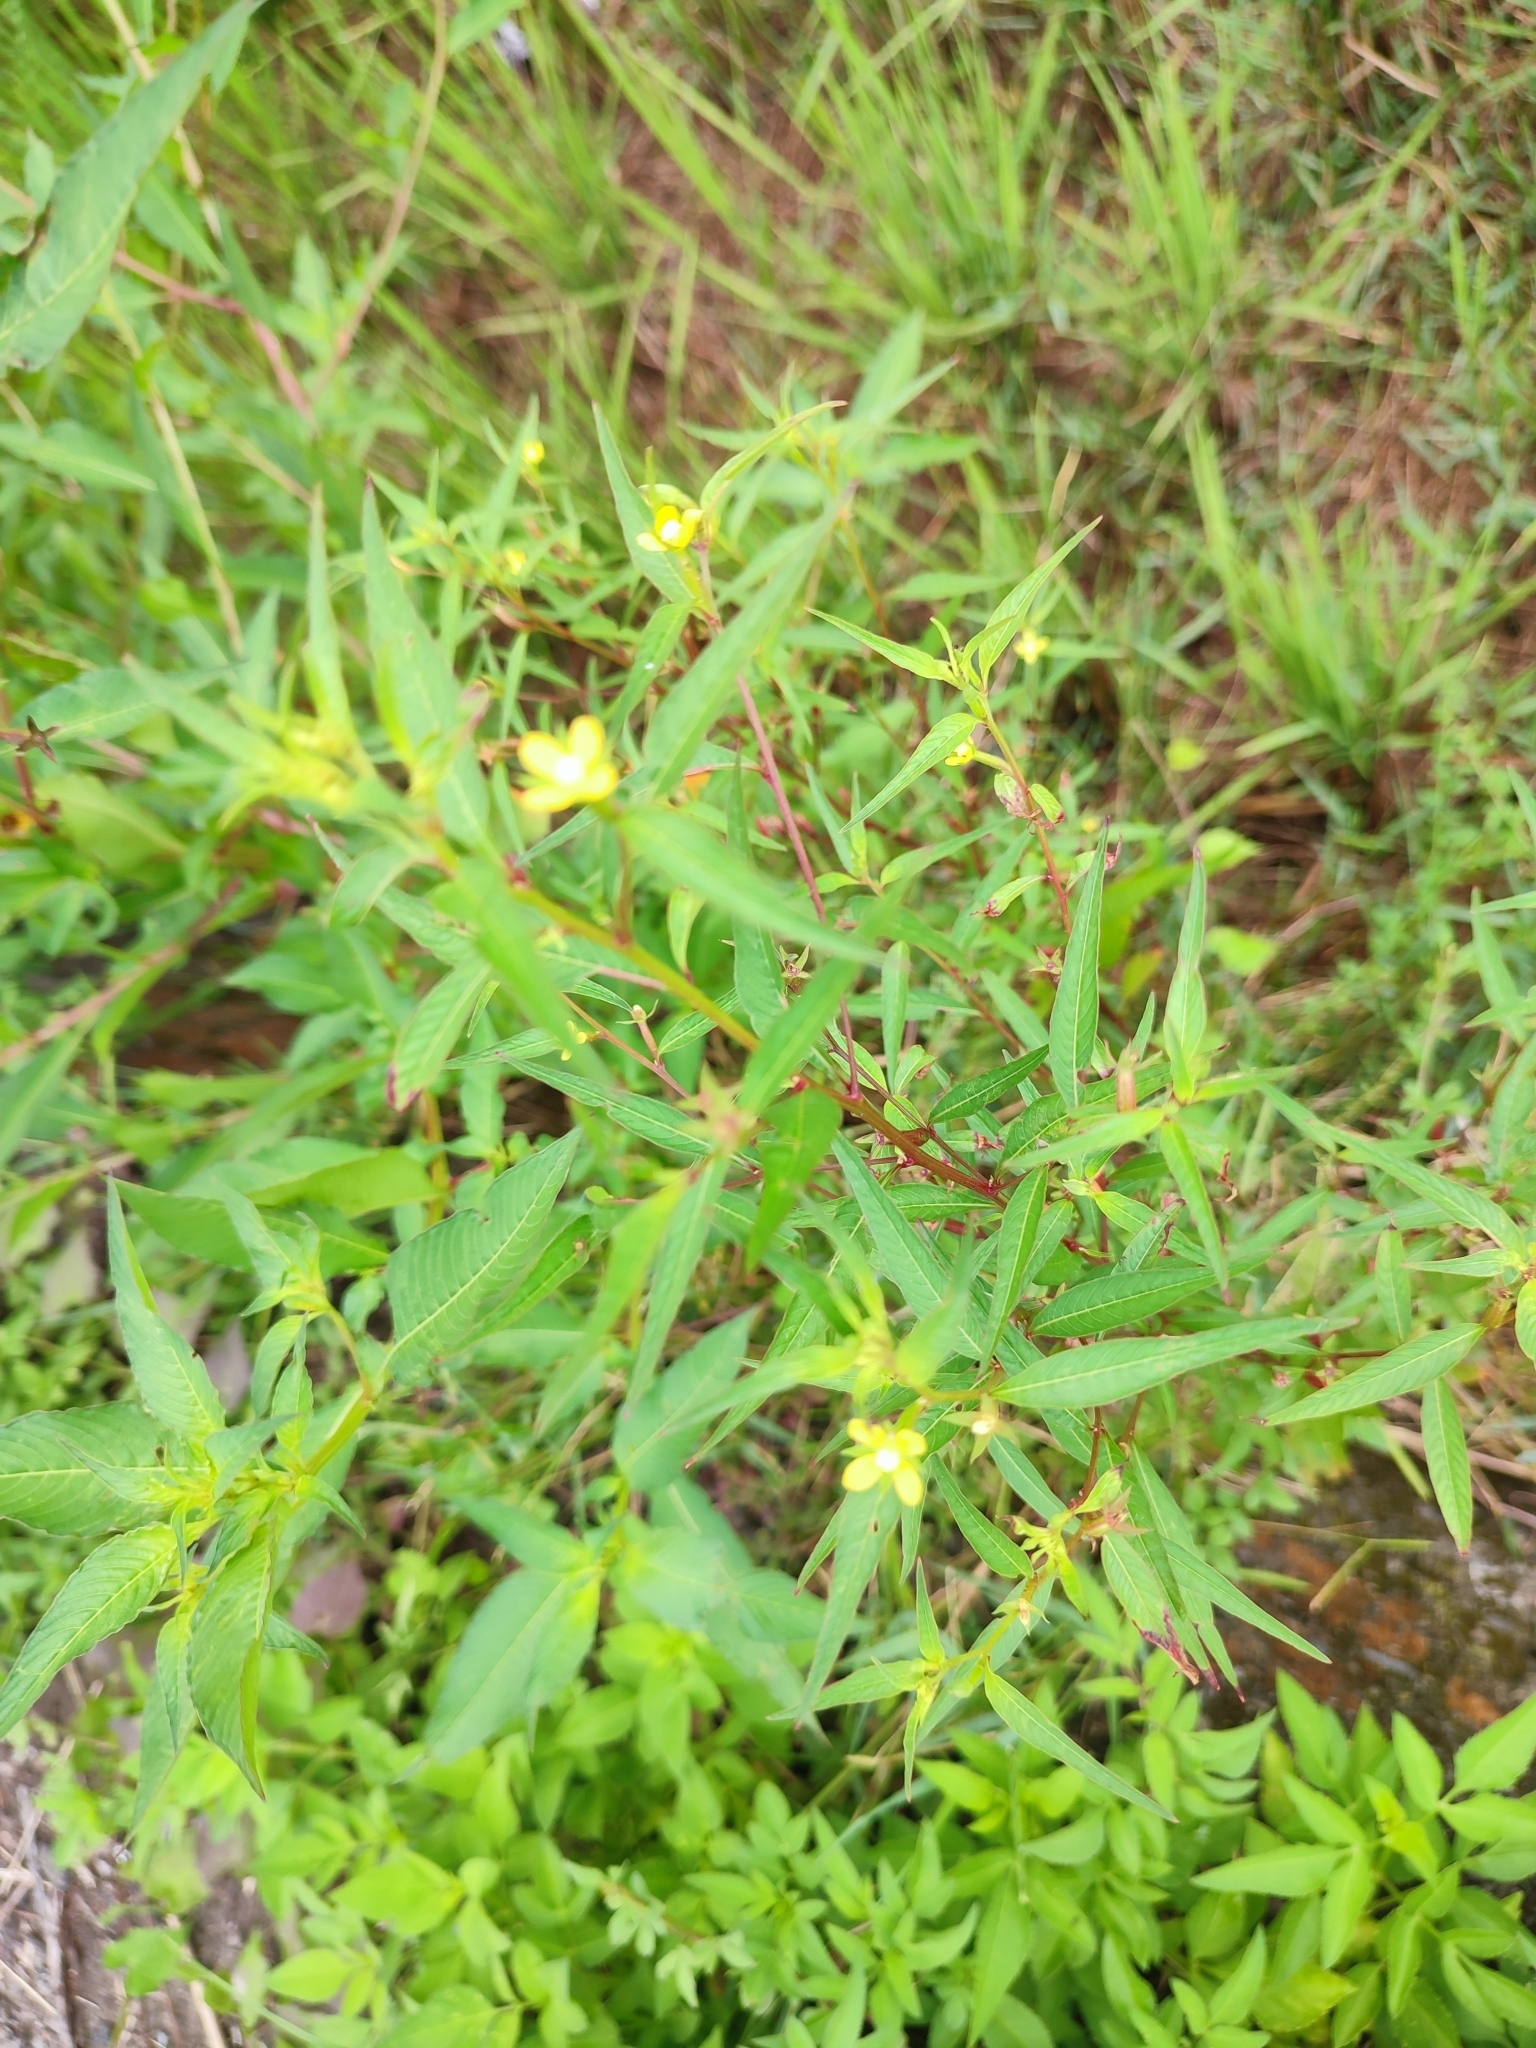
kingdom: Plantae
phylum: Tracheophyta
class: Magnoliopsida
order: Myrtales
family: Onagraceae
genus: Ludwigia
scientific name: Ludwigia hyssopifolia
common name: Linear leaf water primrose
